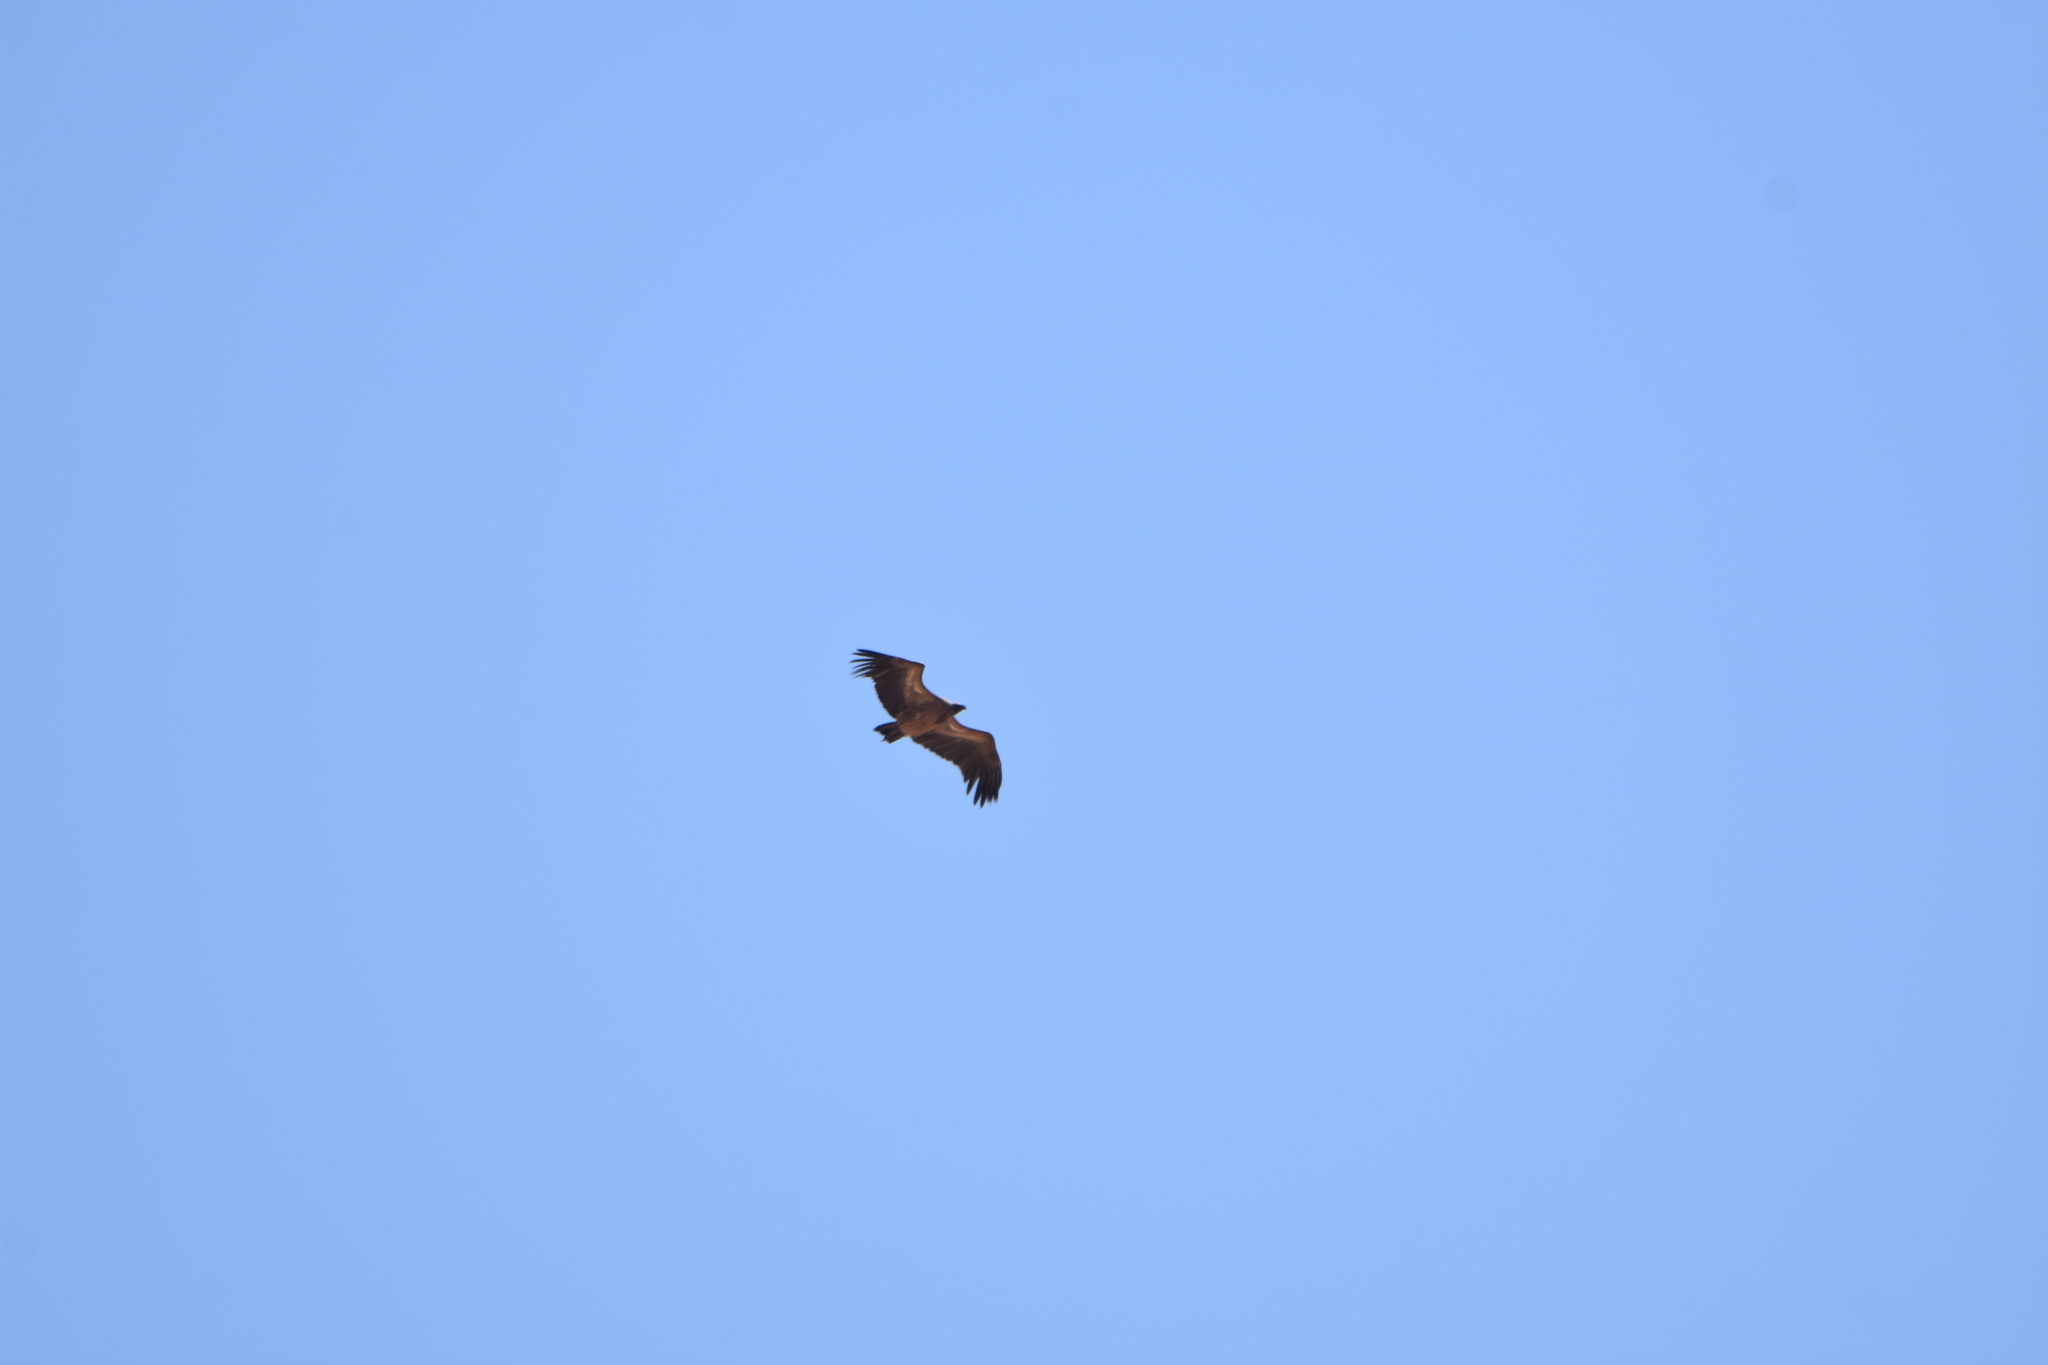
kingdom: Animalia
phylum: Chordata
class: Aves
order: Accipitriformes
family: Accipitridae
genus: Gyps
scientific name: Gyps africanus
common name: White-backed vulture
